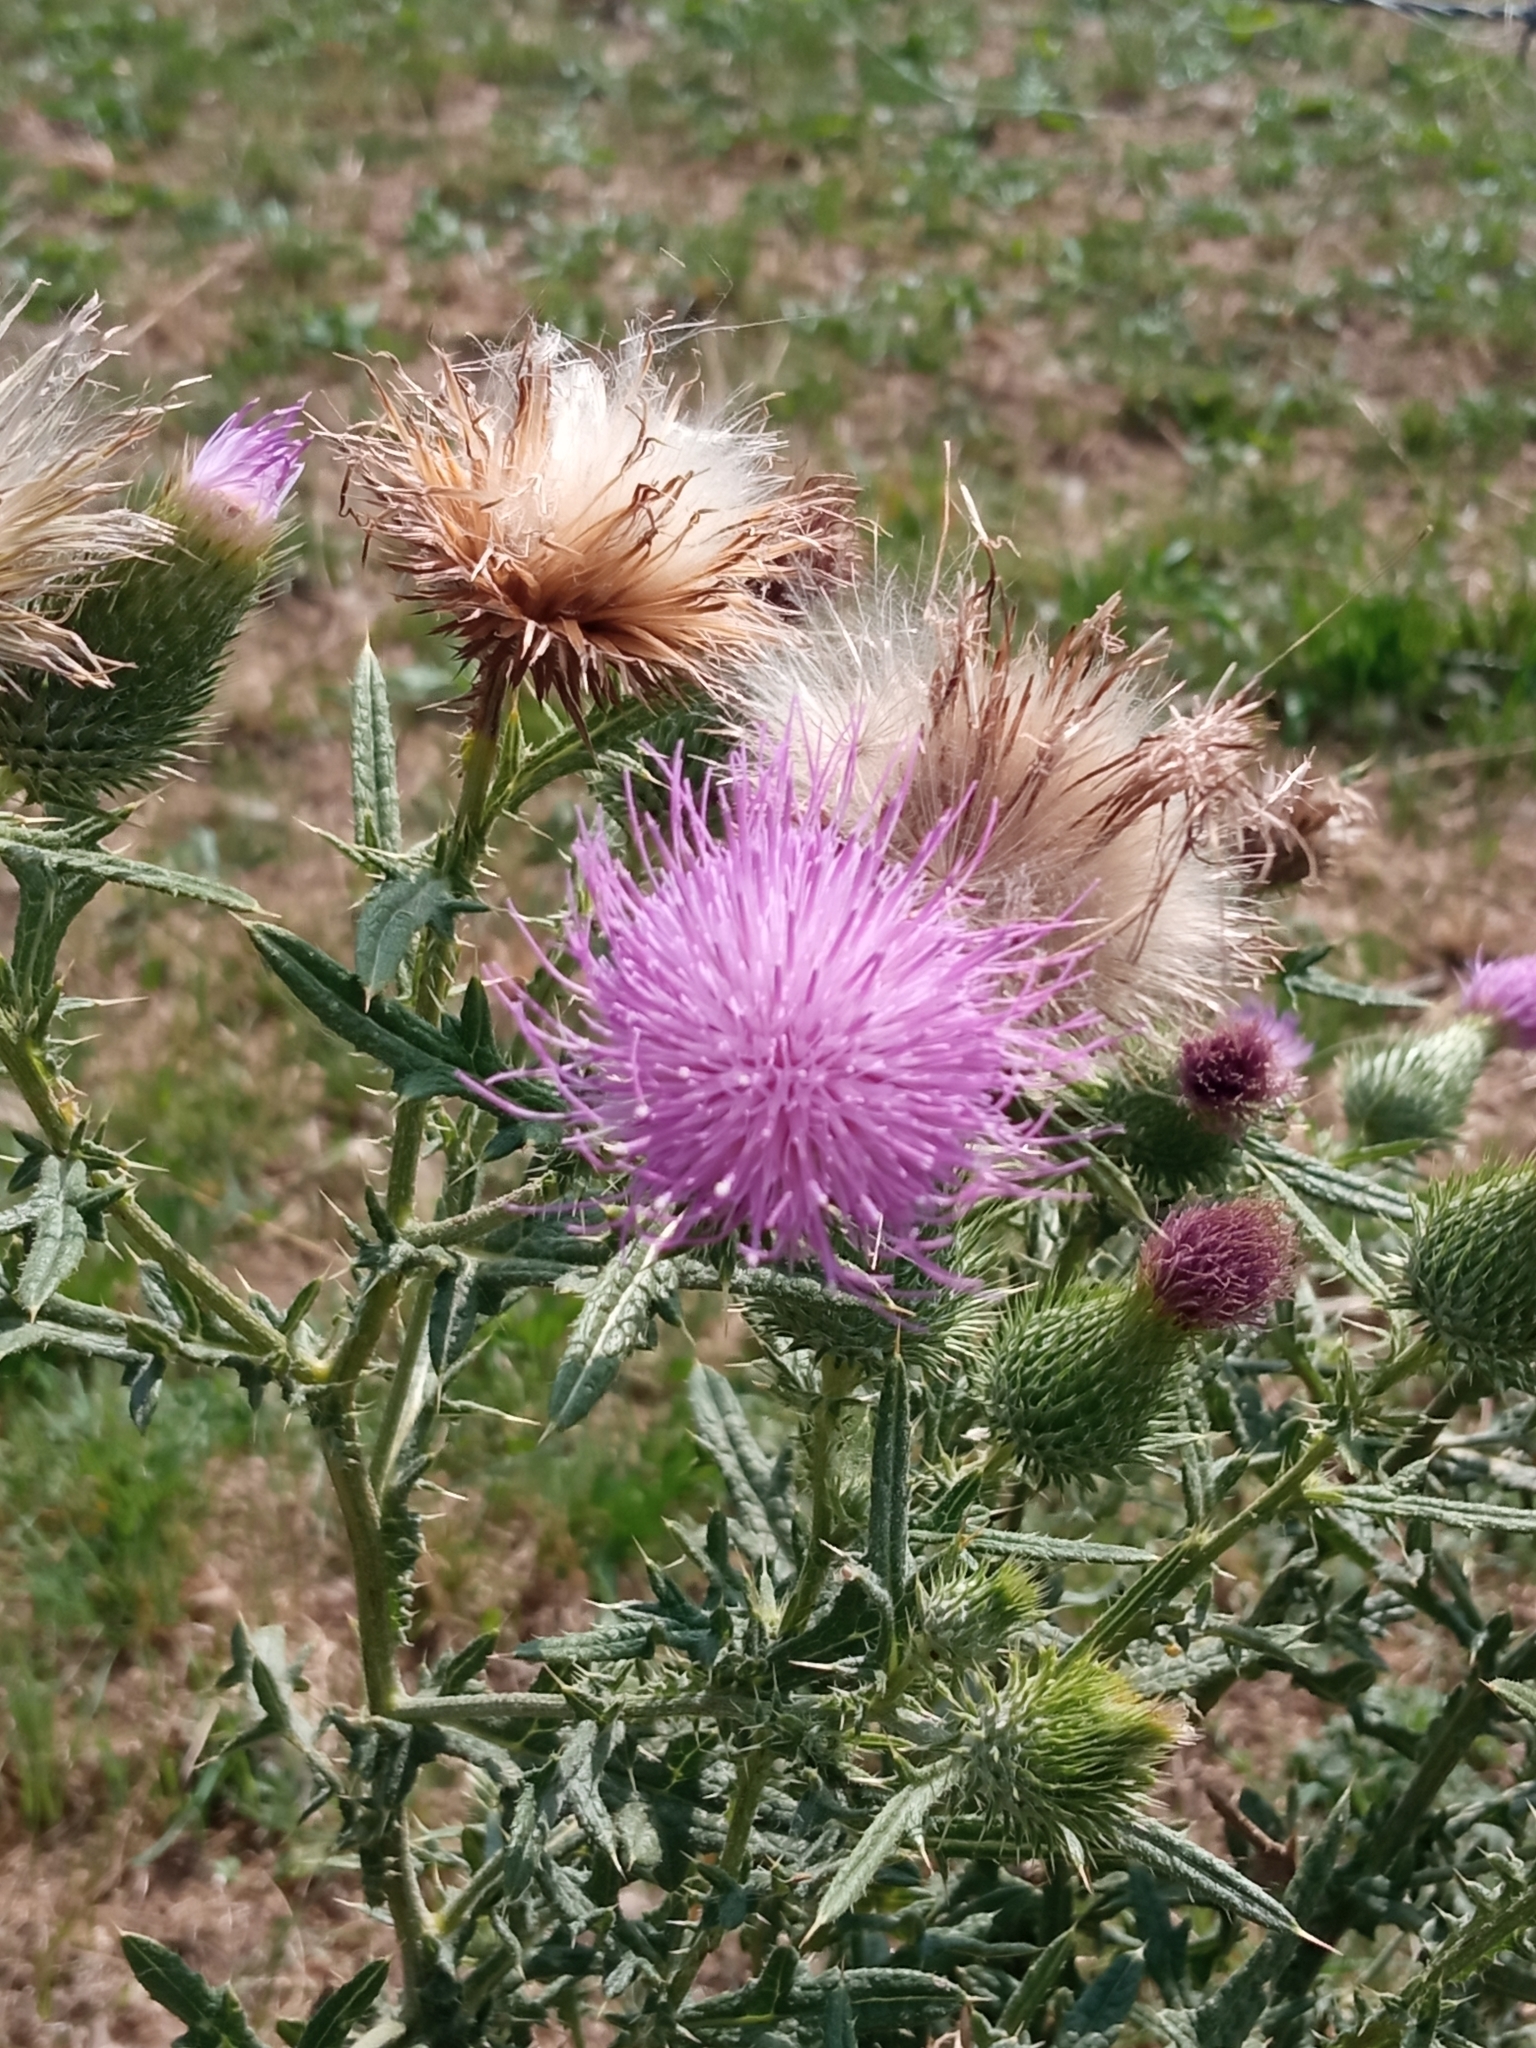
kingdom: Plantae
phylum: Tracheophyta
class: Magnoliopsida
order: Asterales
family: Asteraceae
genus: Cirsium
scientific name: Cirsium vulgare
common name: Bull thistle
